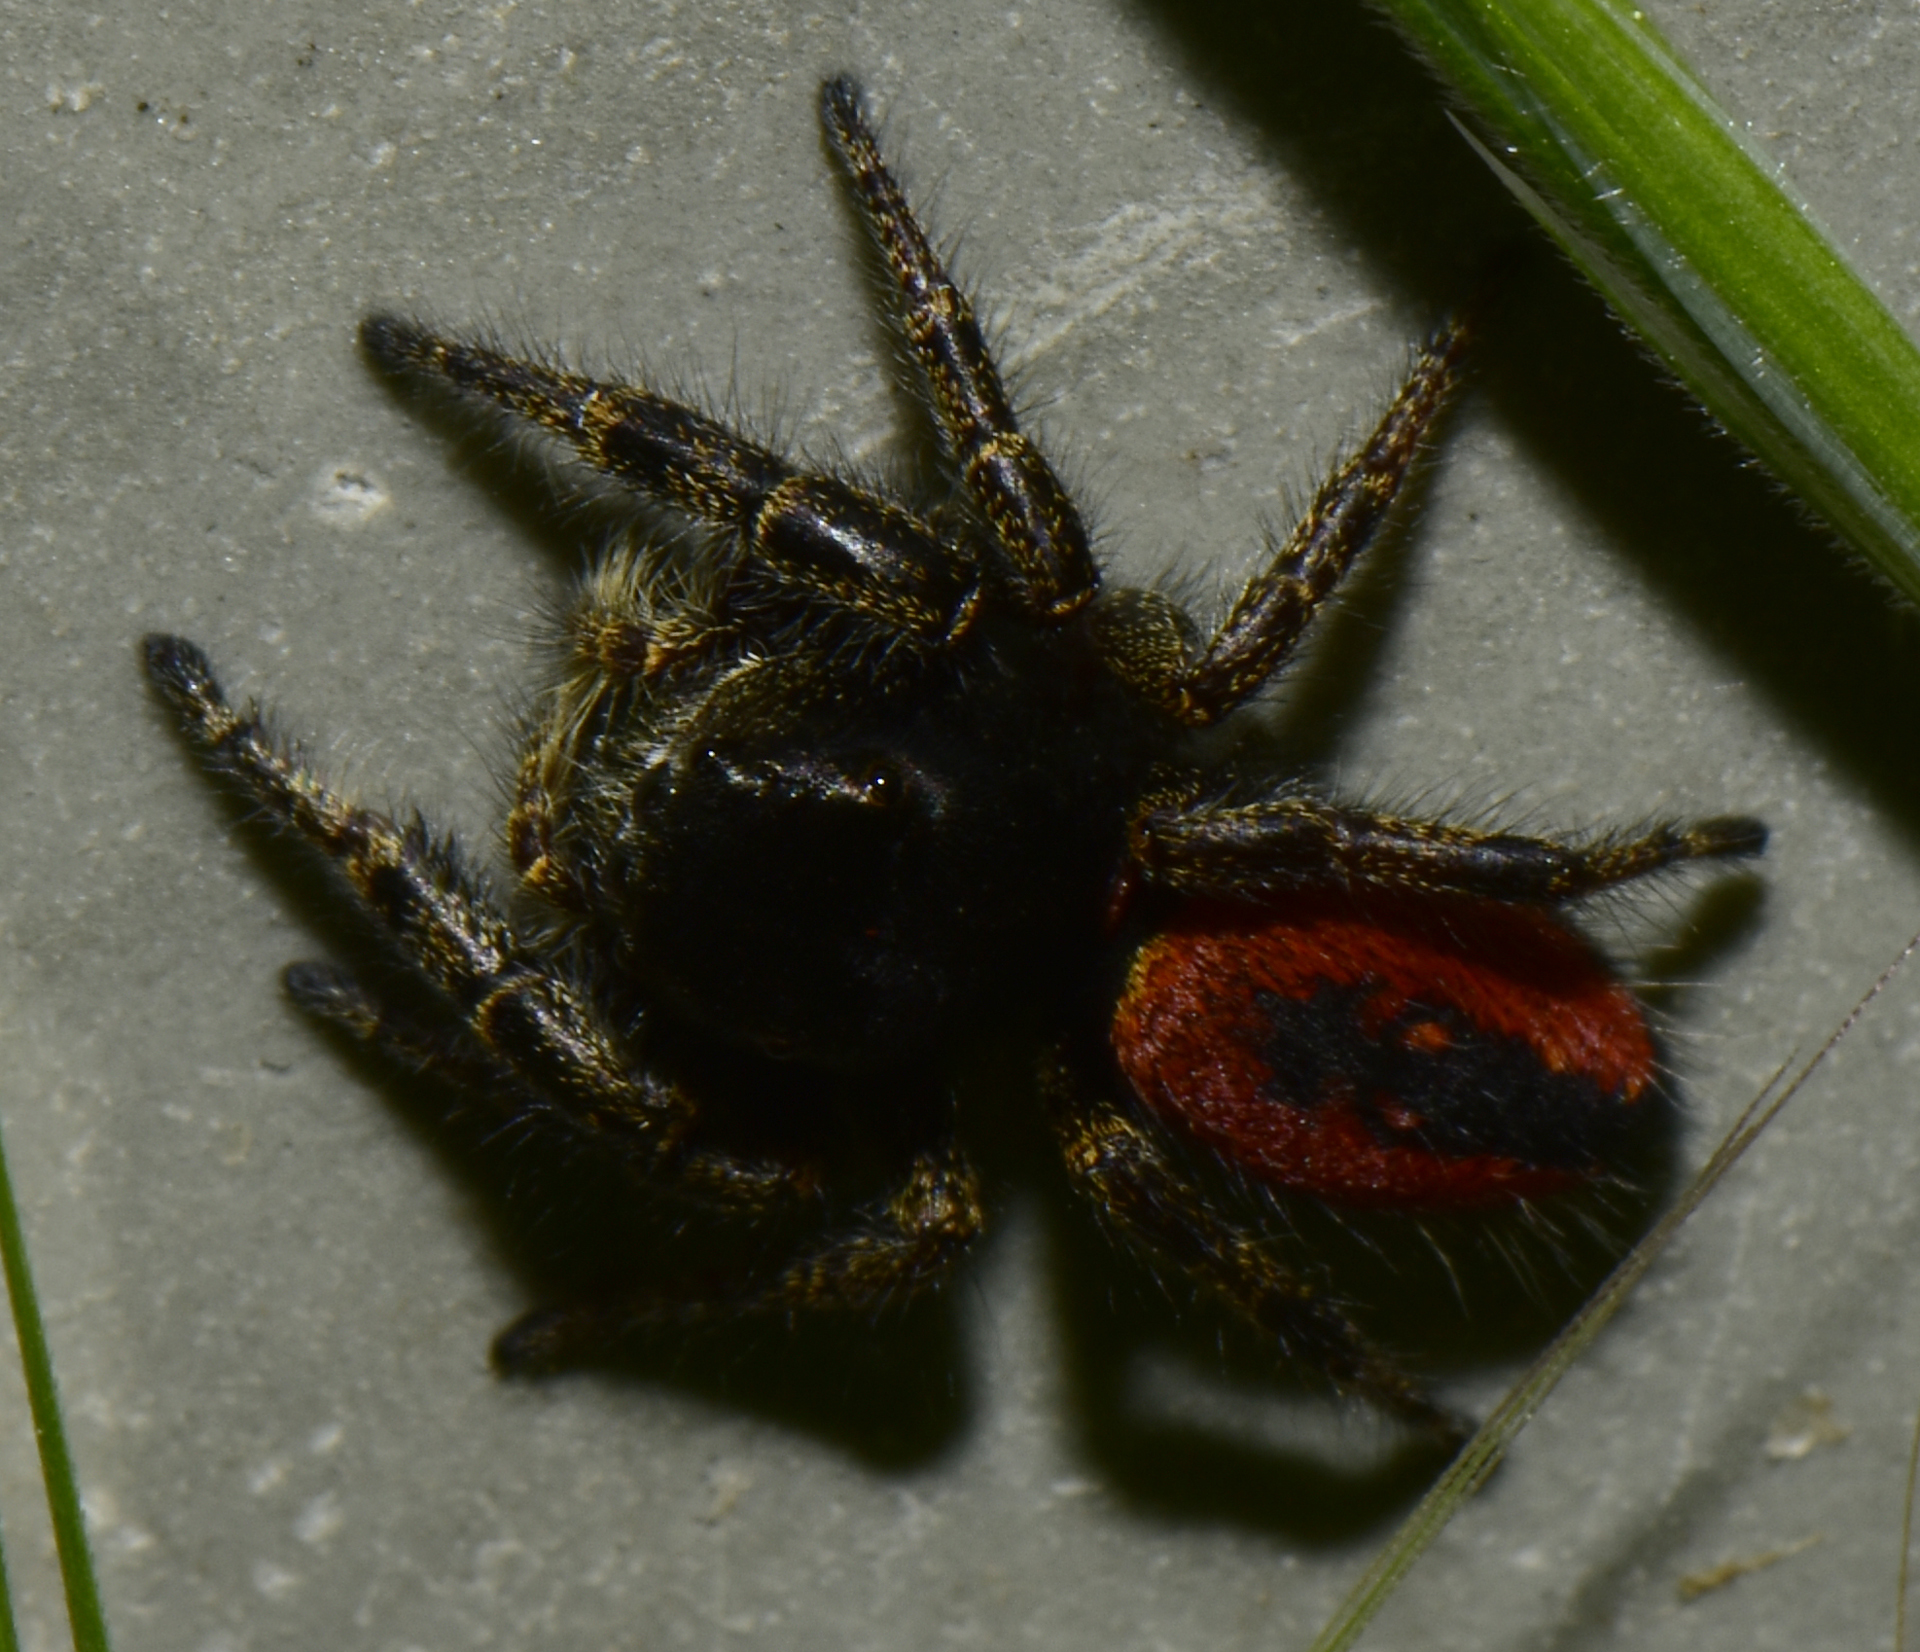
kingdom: Animalia
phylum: Arthropoda
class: Arachnida
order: Araneae
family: Salticidae
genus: Phidippus
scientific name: Phidippus johnsoni
